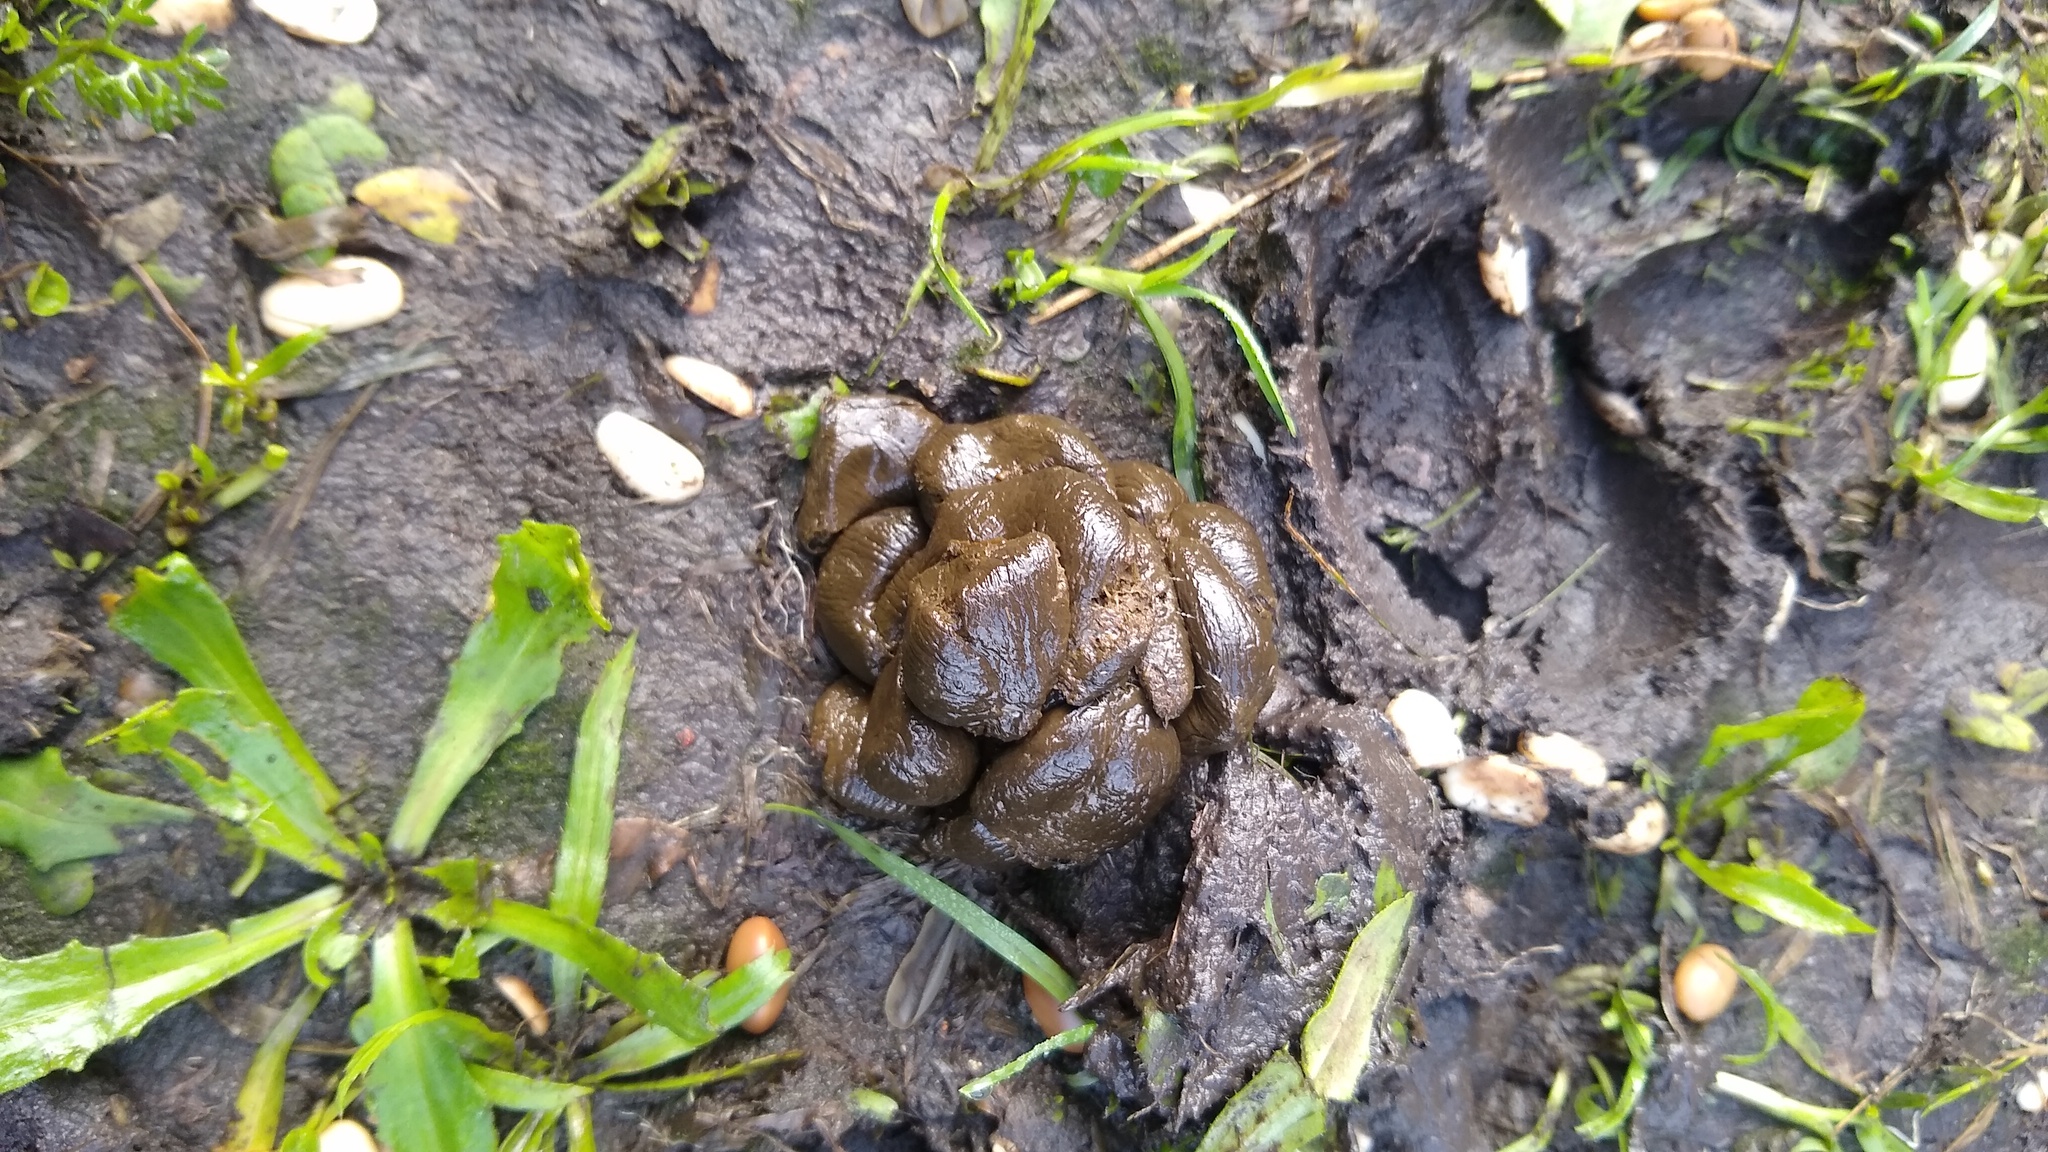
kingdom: Animalia
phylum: Chordata
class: Mammalia
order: Artiodactyla
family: Suidae
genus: Sus
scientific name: Sus scrofa
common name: Wild boar
